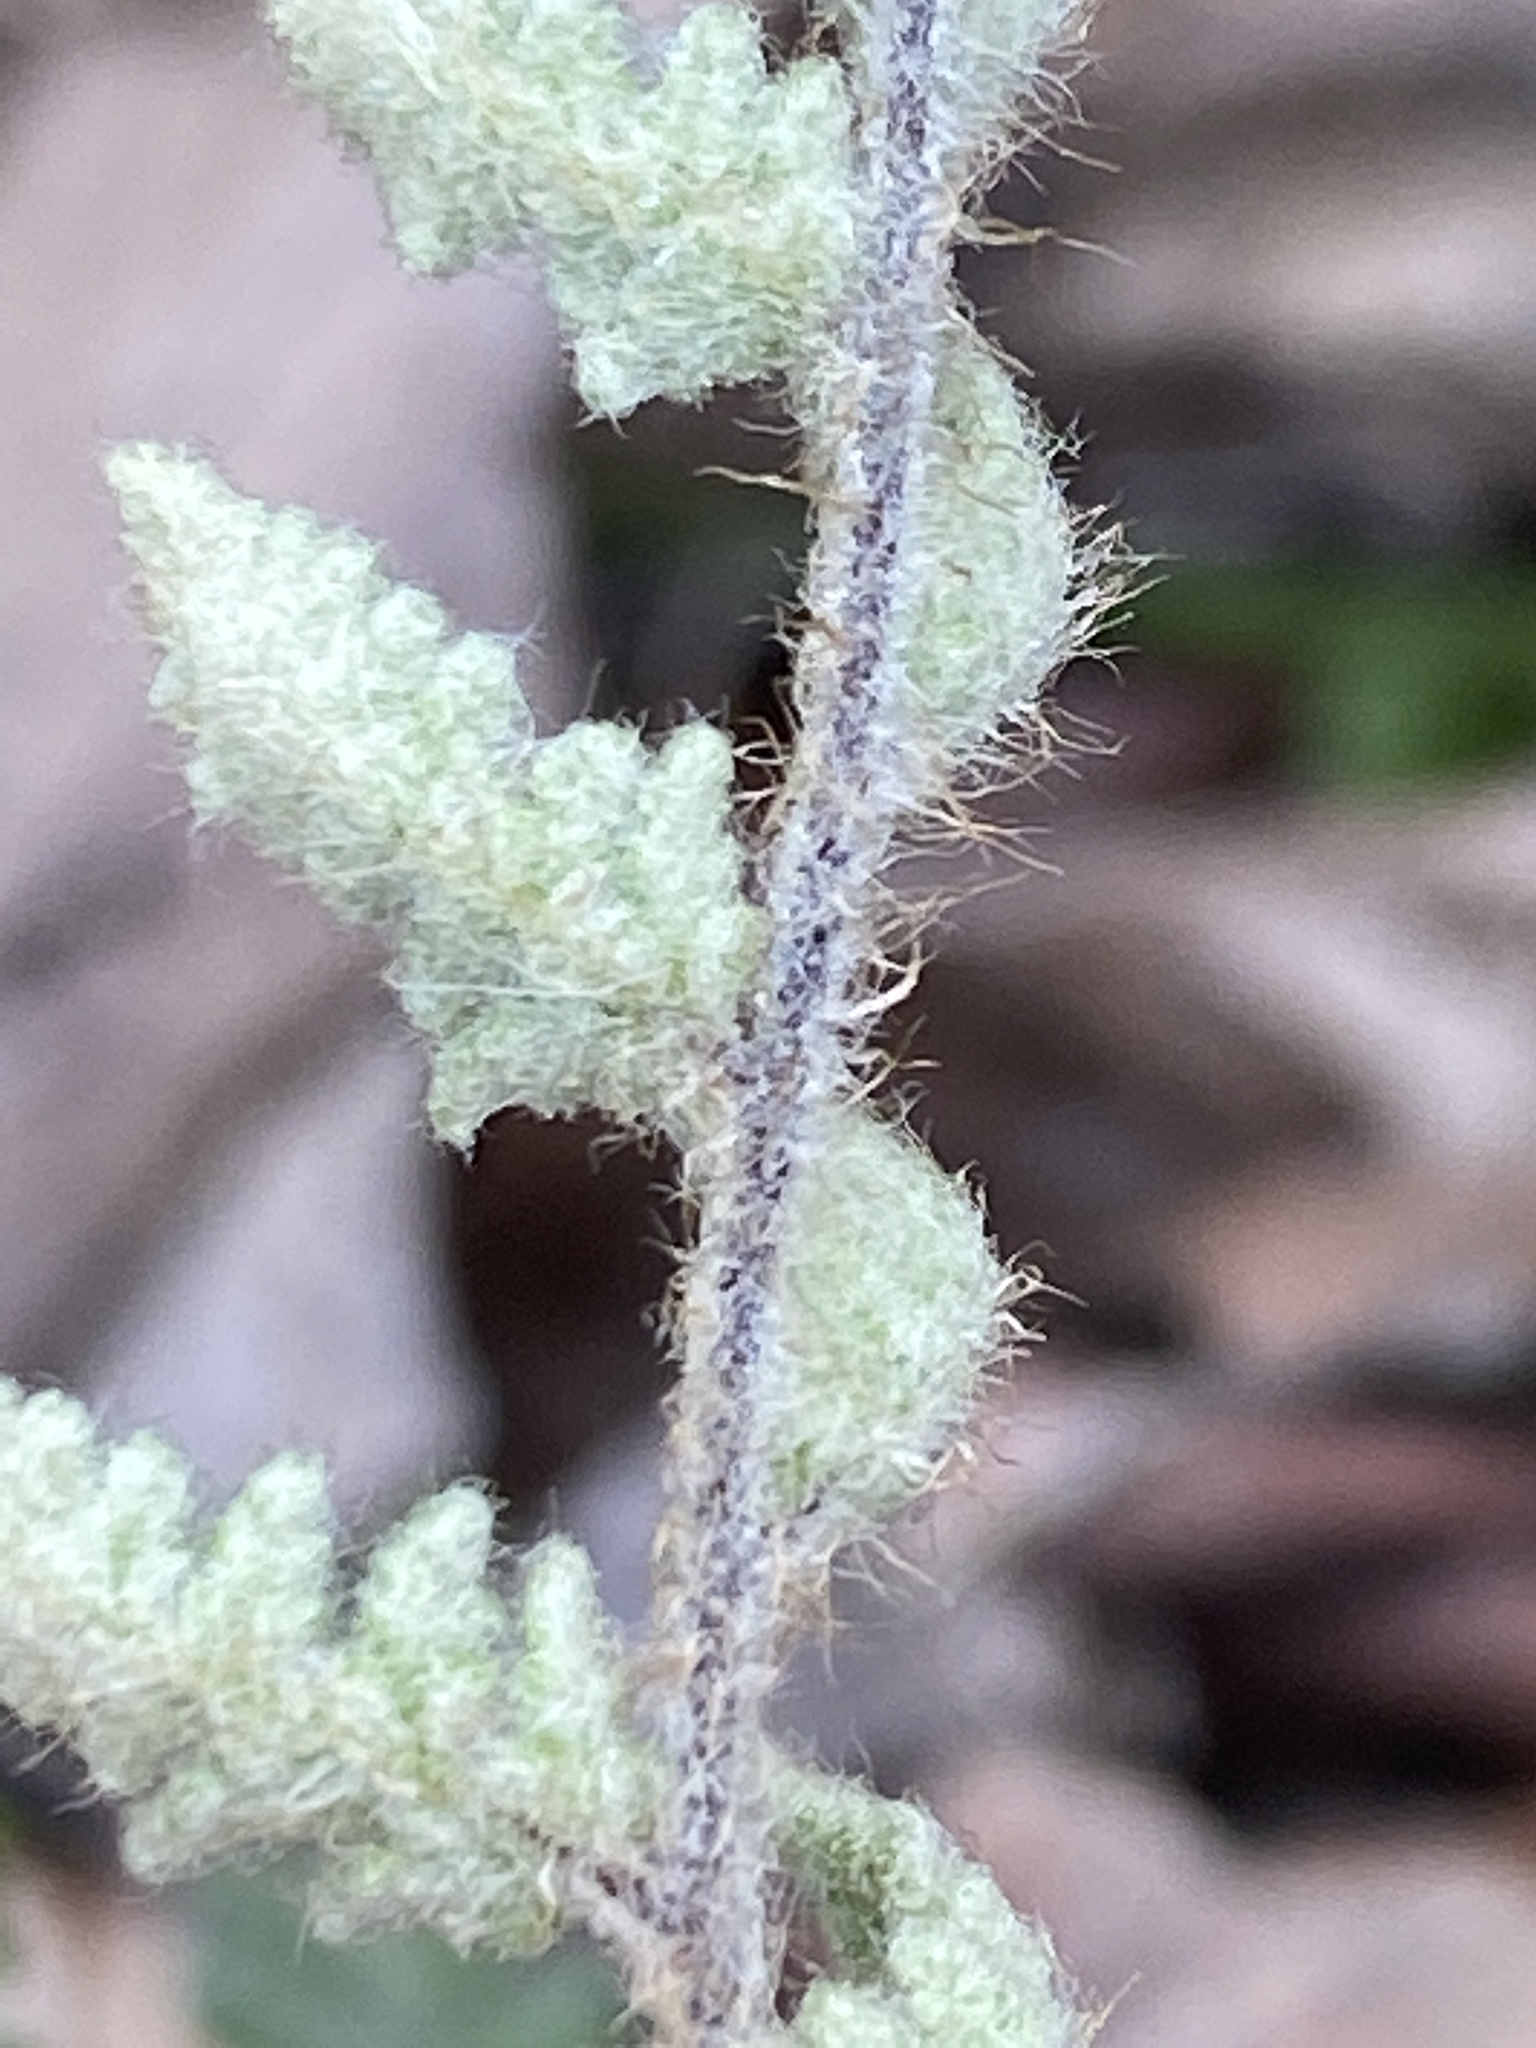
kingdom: Plantae
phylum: Tracheophyta
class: Polypodiopsida
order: Polypodiales
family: Pteridaceae
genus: Myriopteris
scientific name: Myriopteris tomentosa
